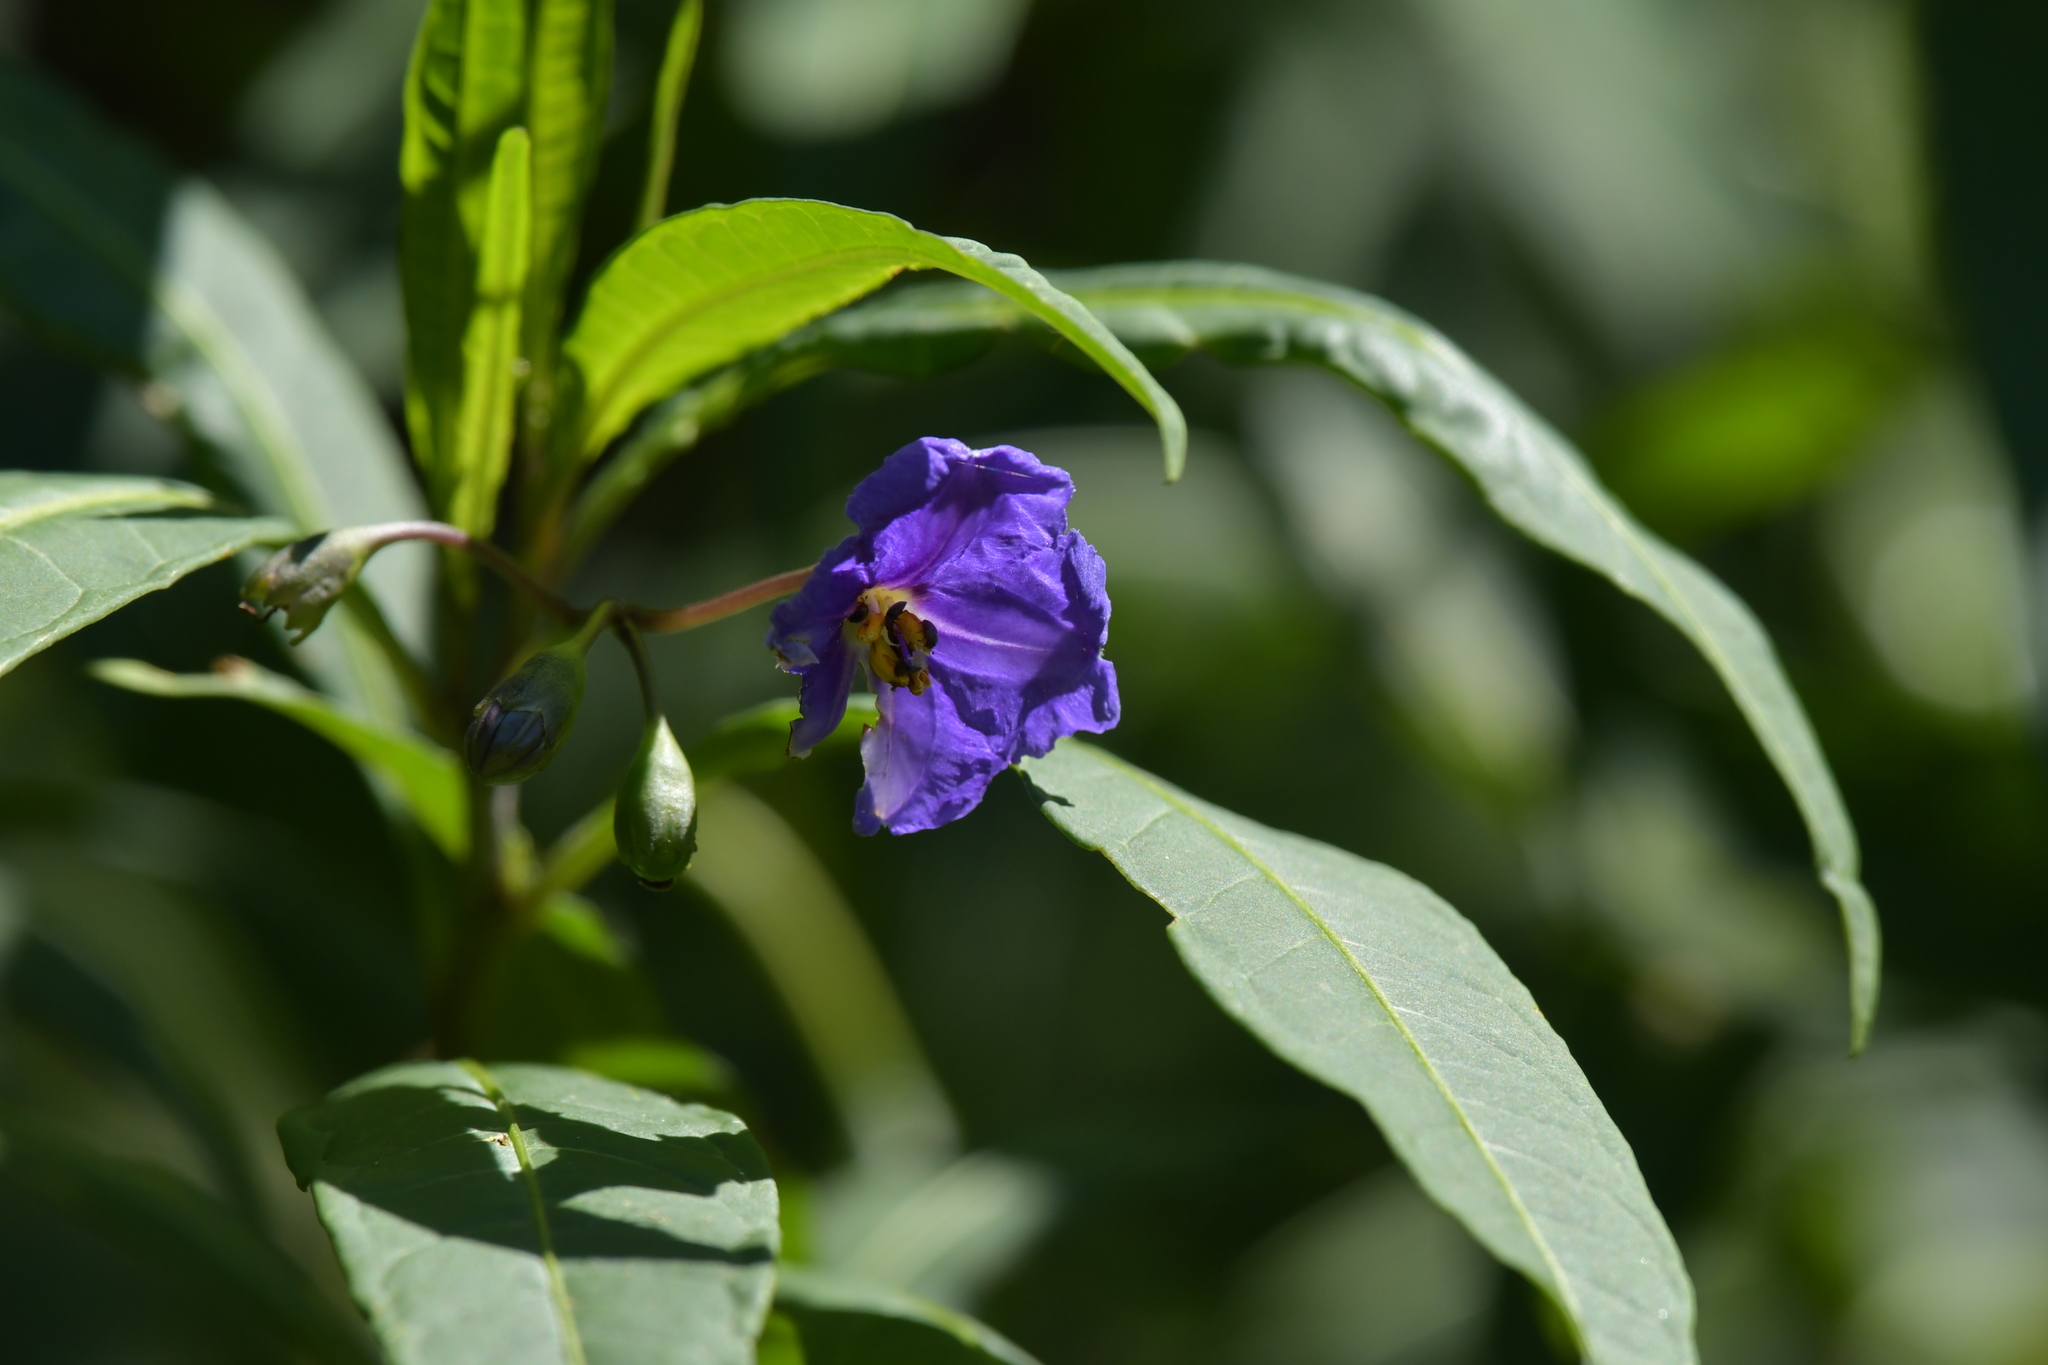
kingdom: Plantae
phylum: Tracheophyta
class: Magnoliopsida
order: Solanales
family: Solanaceae
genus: Solanum
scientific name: Solanum laciniatum
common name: Kangaroo-apple
